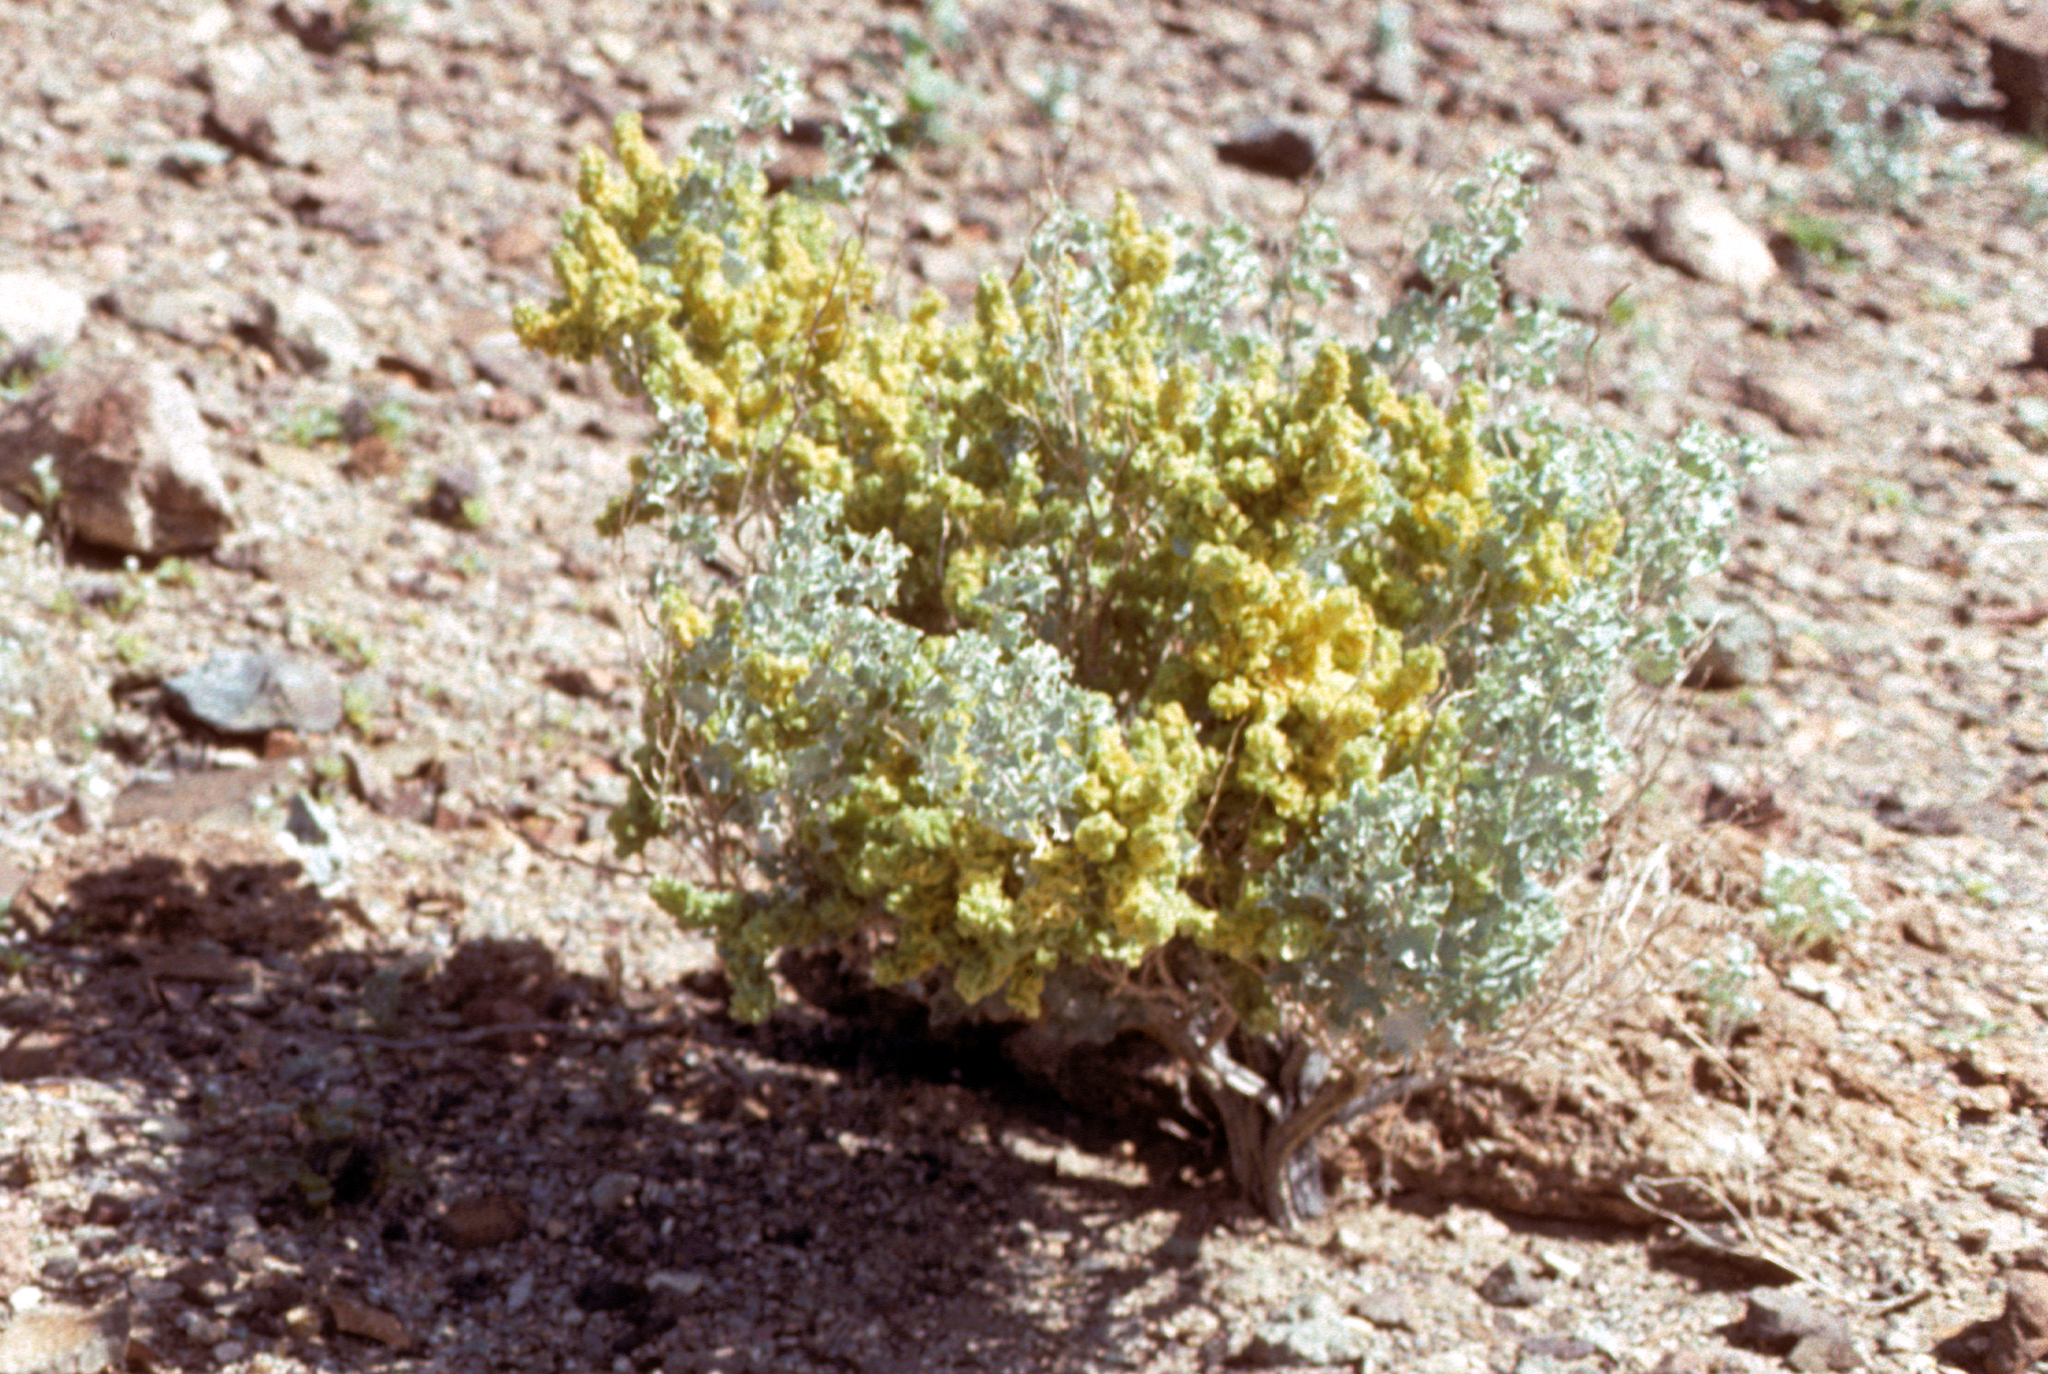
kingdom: Plantae
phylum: Tracheophyta
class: Magnoliopsida
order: Caryophyllales
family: Amaranthaceae
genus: Atriplex
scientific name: Atriplex hymenelytra
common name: Desert-holly
